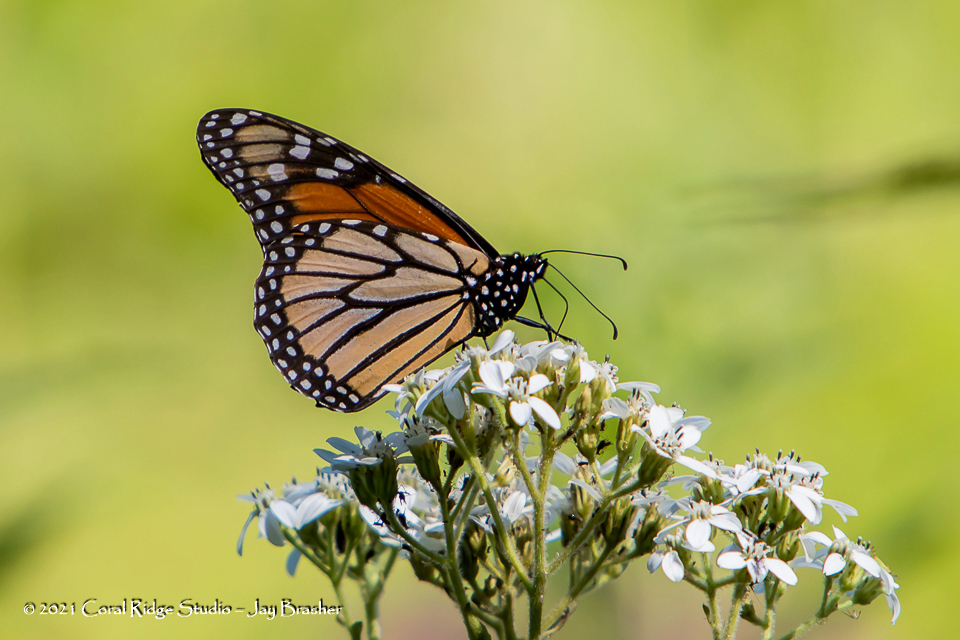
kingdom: Animalia
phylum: Arthropoda
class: Insecta
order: Lepidoptera
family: Nymphalidae
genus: Danaus
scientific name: Danaus plexippus
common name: Monarch
